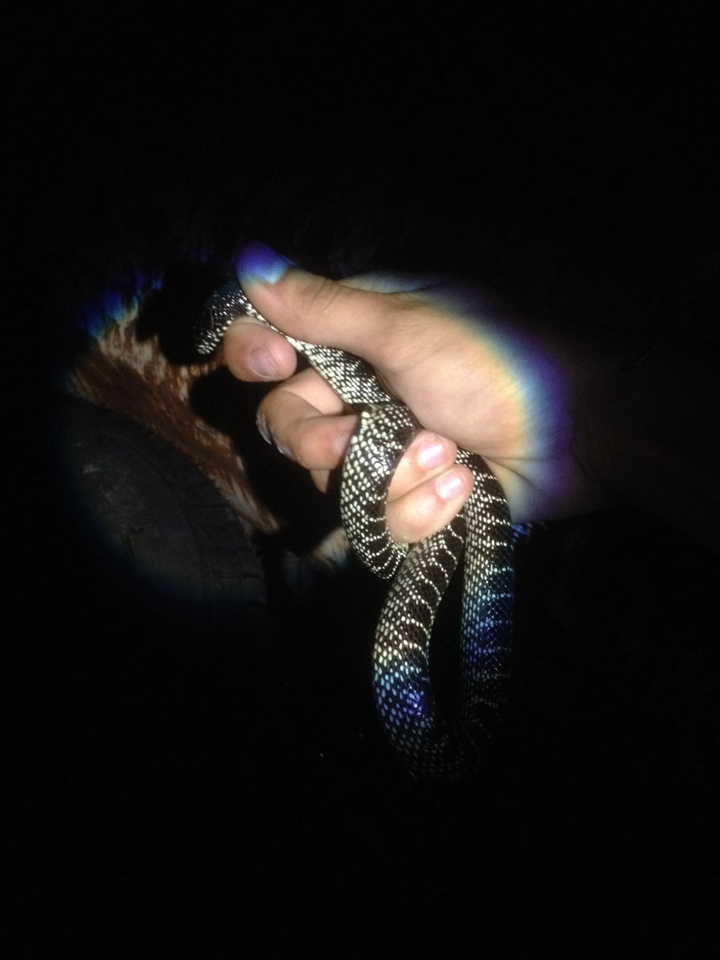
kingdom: Animalia
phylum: Chordata
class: Squamata
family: Colubridae
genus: Lampropeltis
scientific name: Lampropeltis splendida
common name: Desert kingsnake
